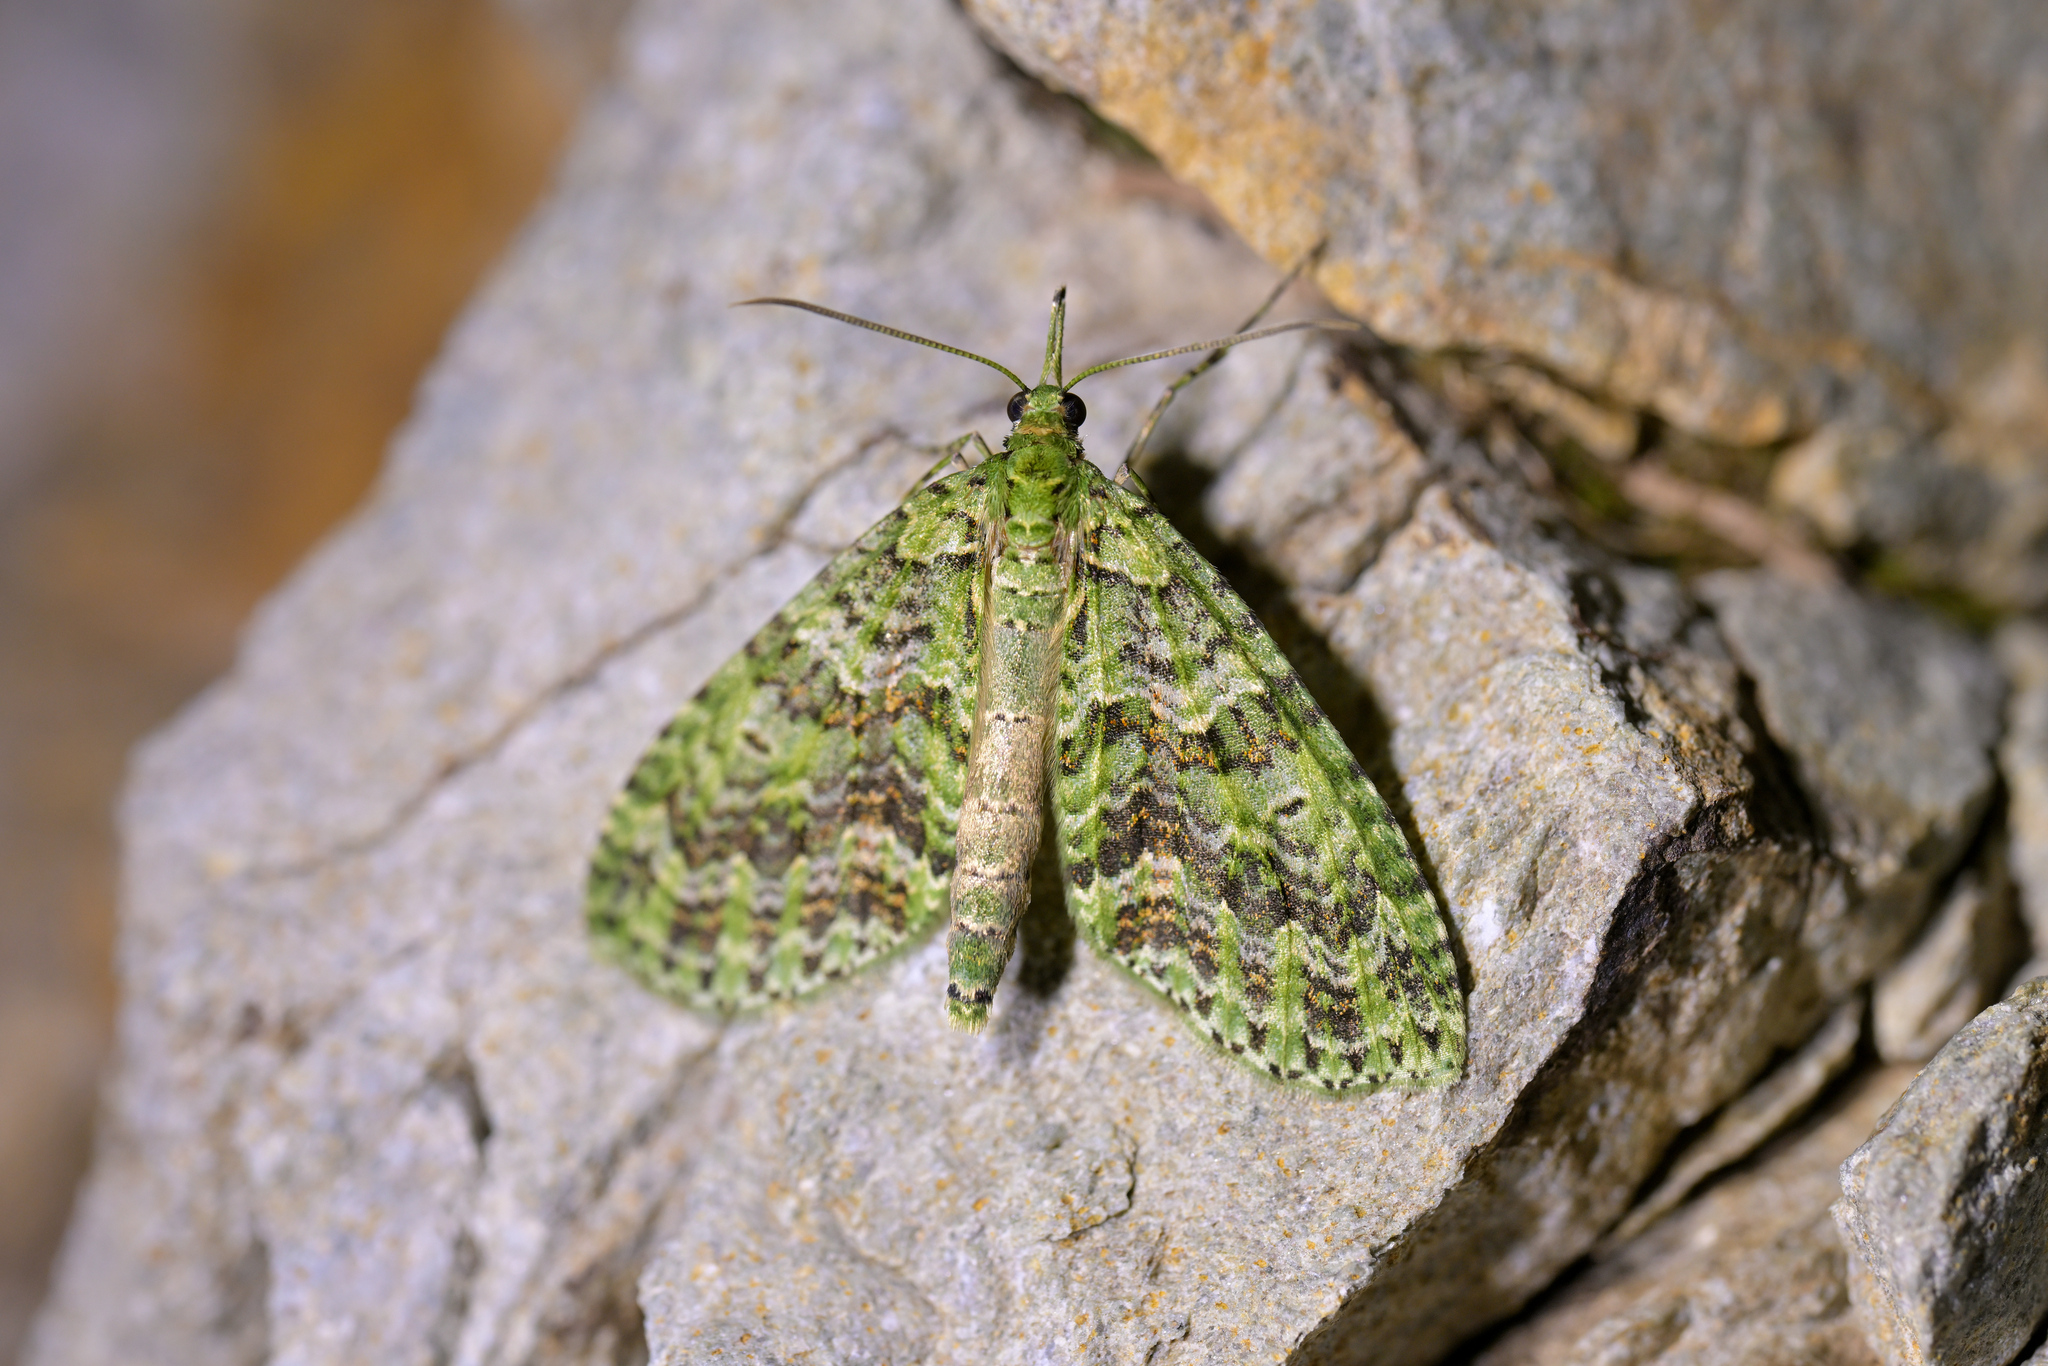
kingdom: Animalia
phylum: Arthropoda
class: Insecta
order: Lepidoptera
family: Geometridae
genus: Tatosoma
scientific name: Tatosoma tipulata
